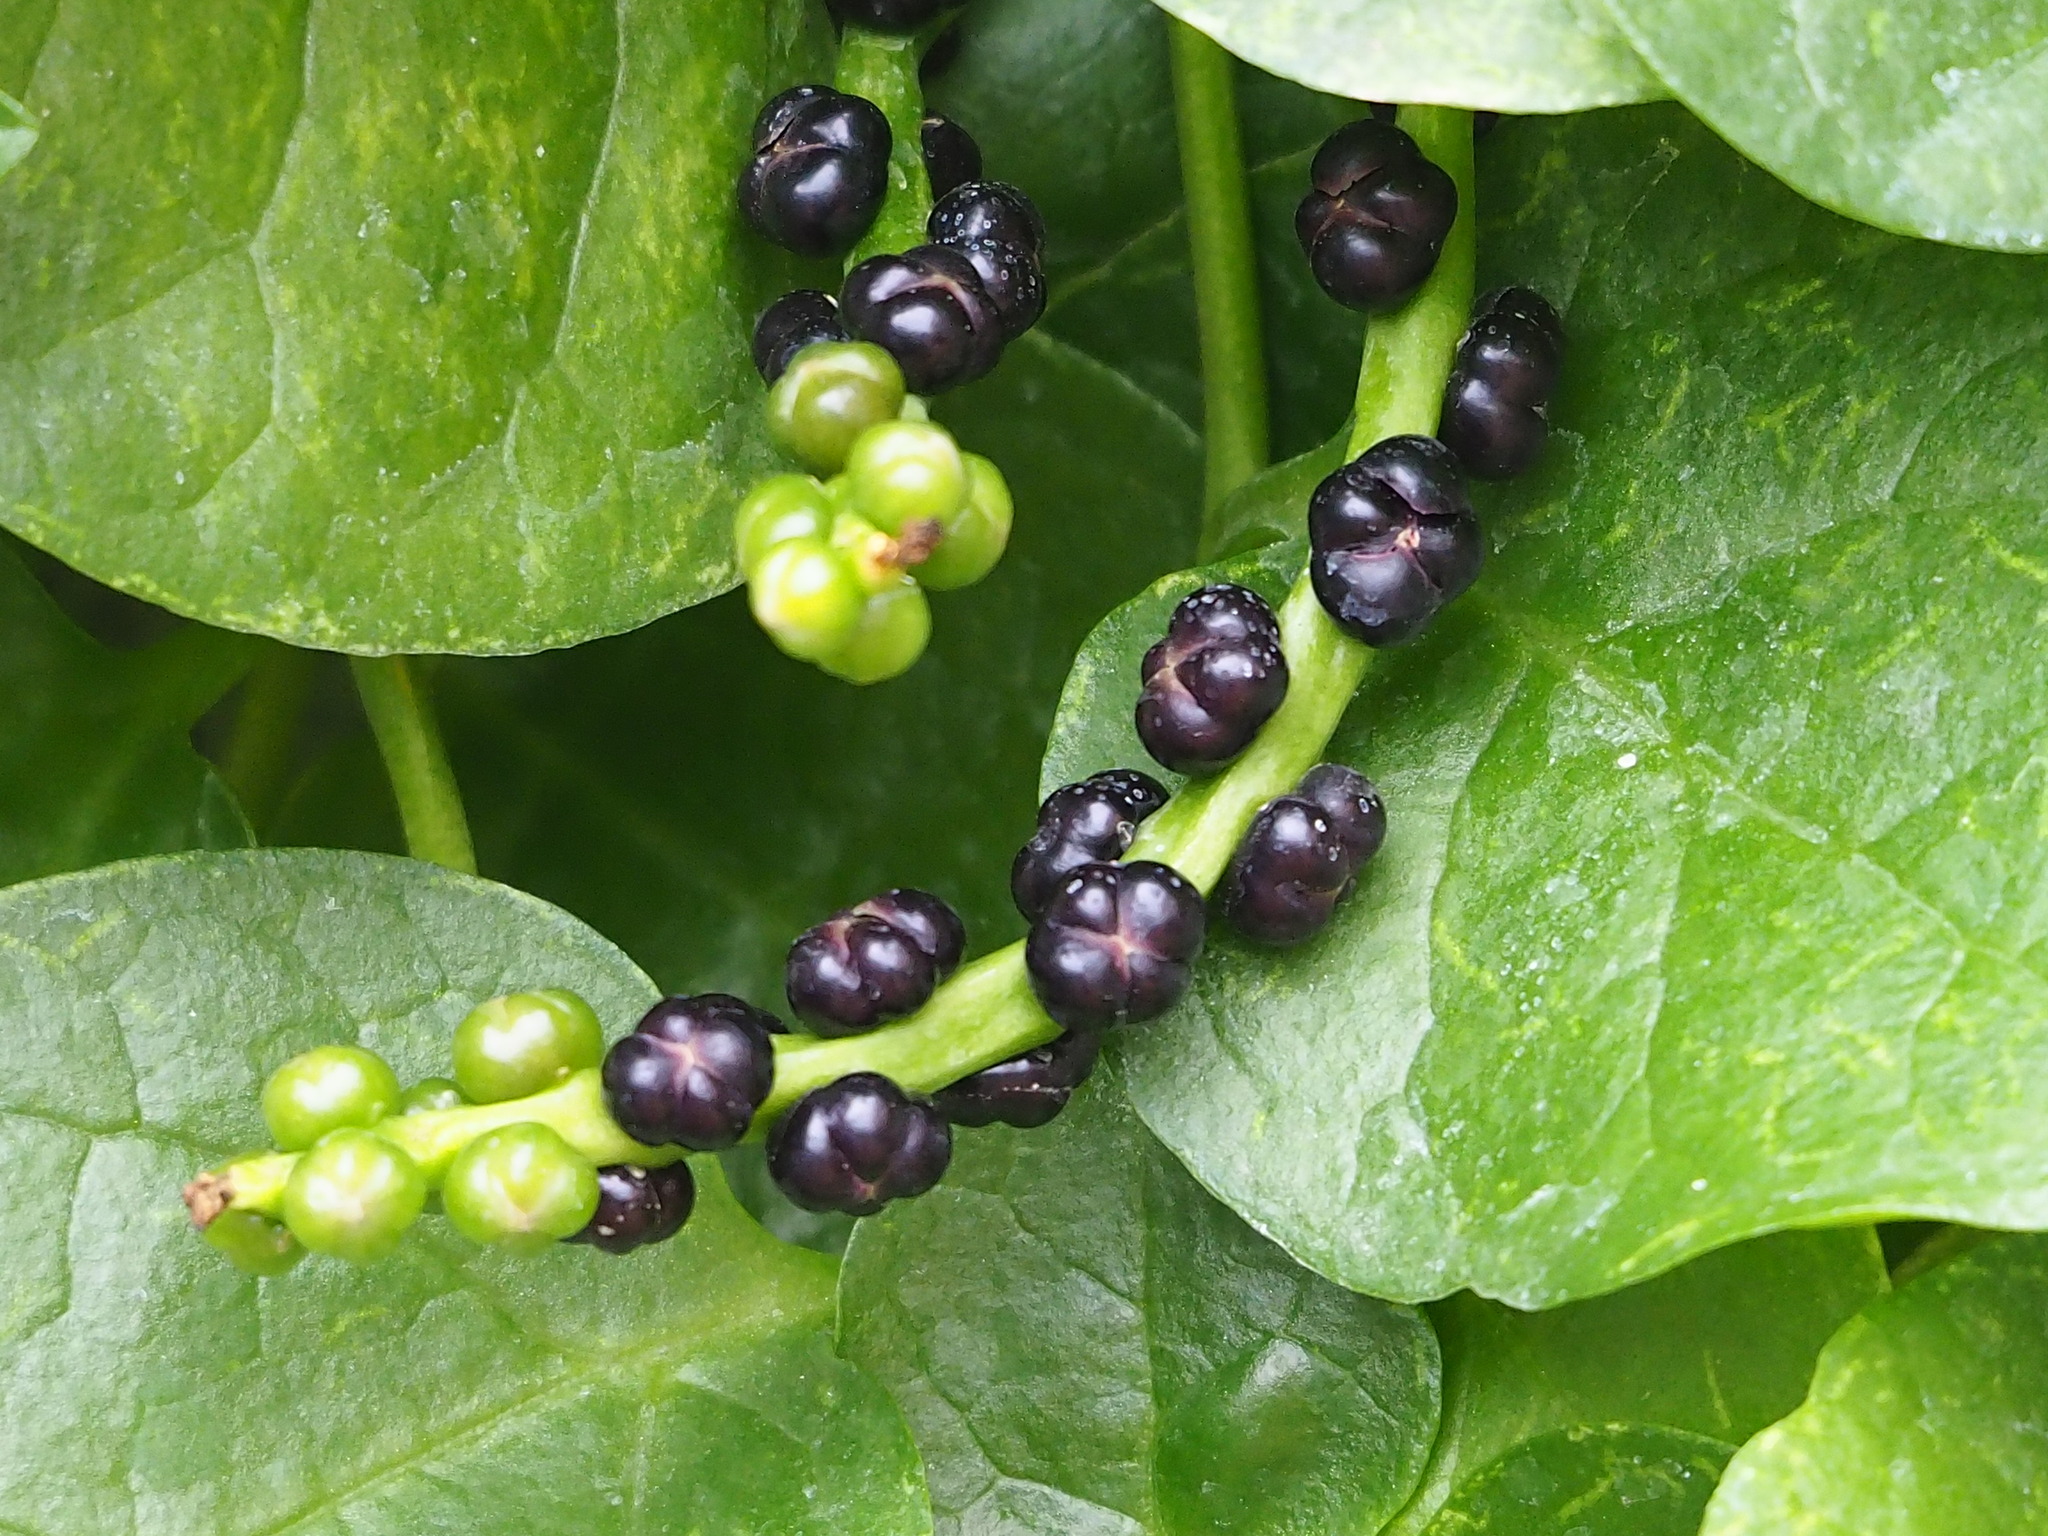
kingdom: Plantae
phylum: Tracheophyta
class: Magnoliopsida
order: Caryophyllales
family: Basellaceae
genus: Basella
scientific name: Basella alba
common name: Indian spinach
